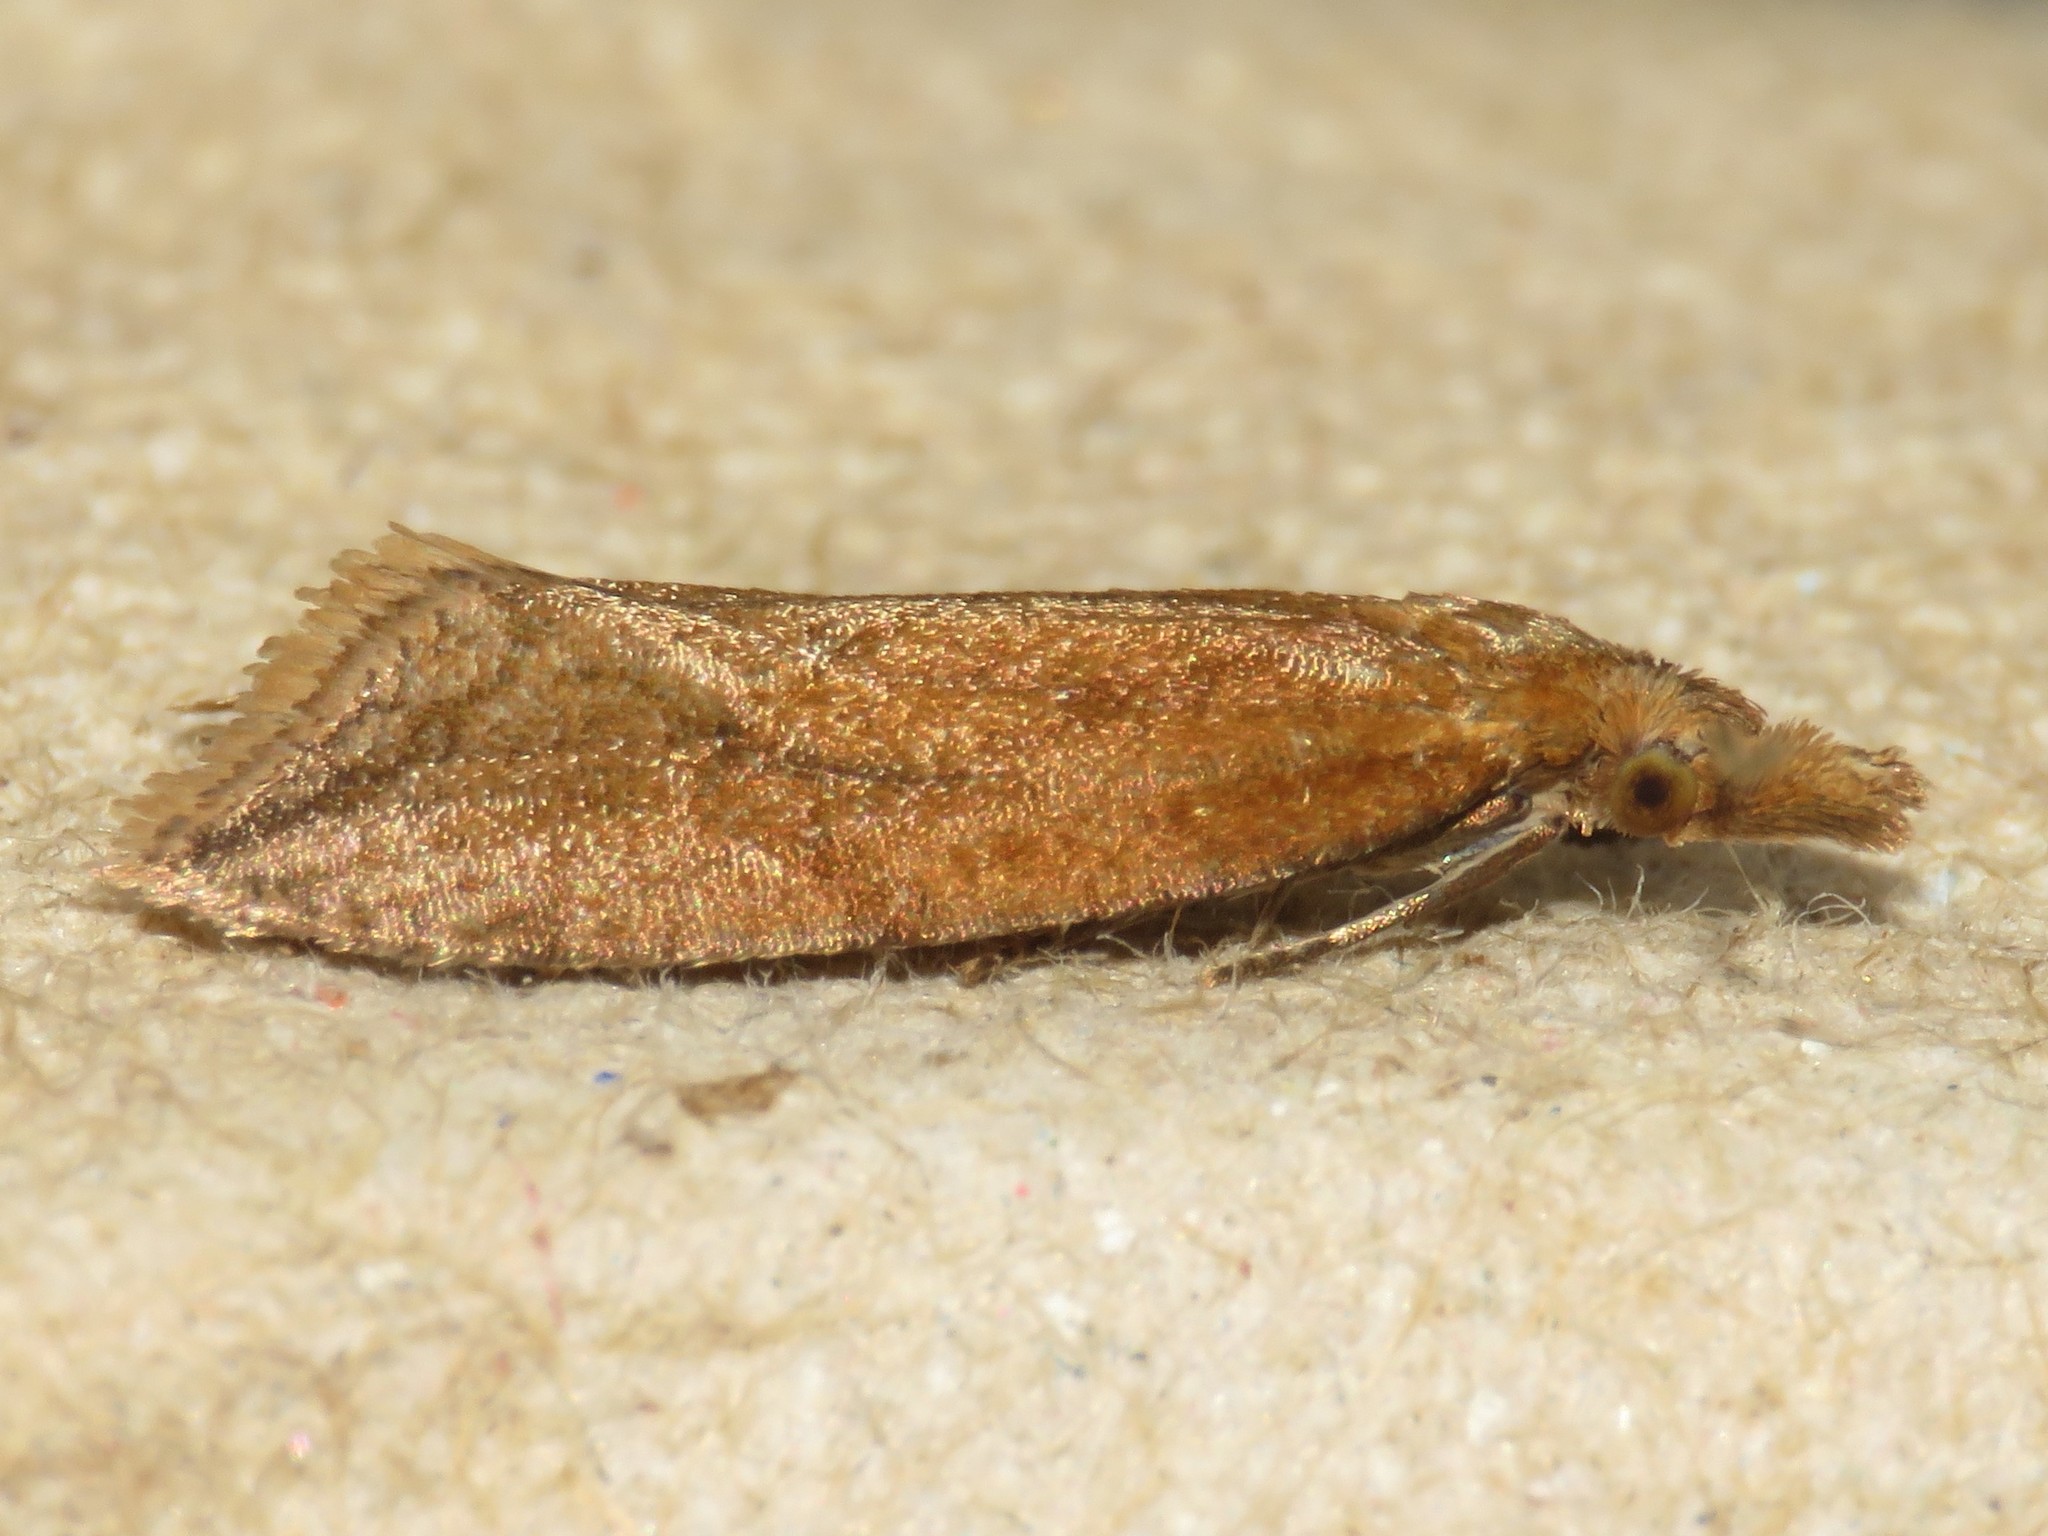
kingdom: Animalia
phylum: Arthropoda
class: Insecta
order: Lepidoptera
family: Tortricidae
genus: Aethes
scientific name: Aethes biscana
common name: Reddish aethes
